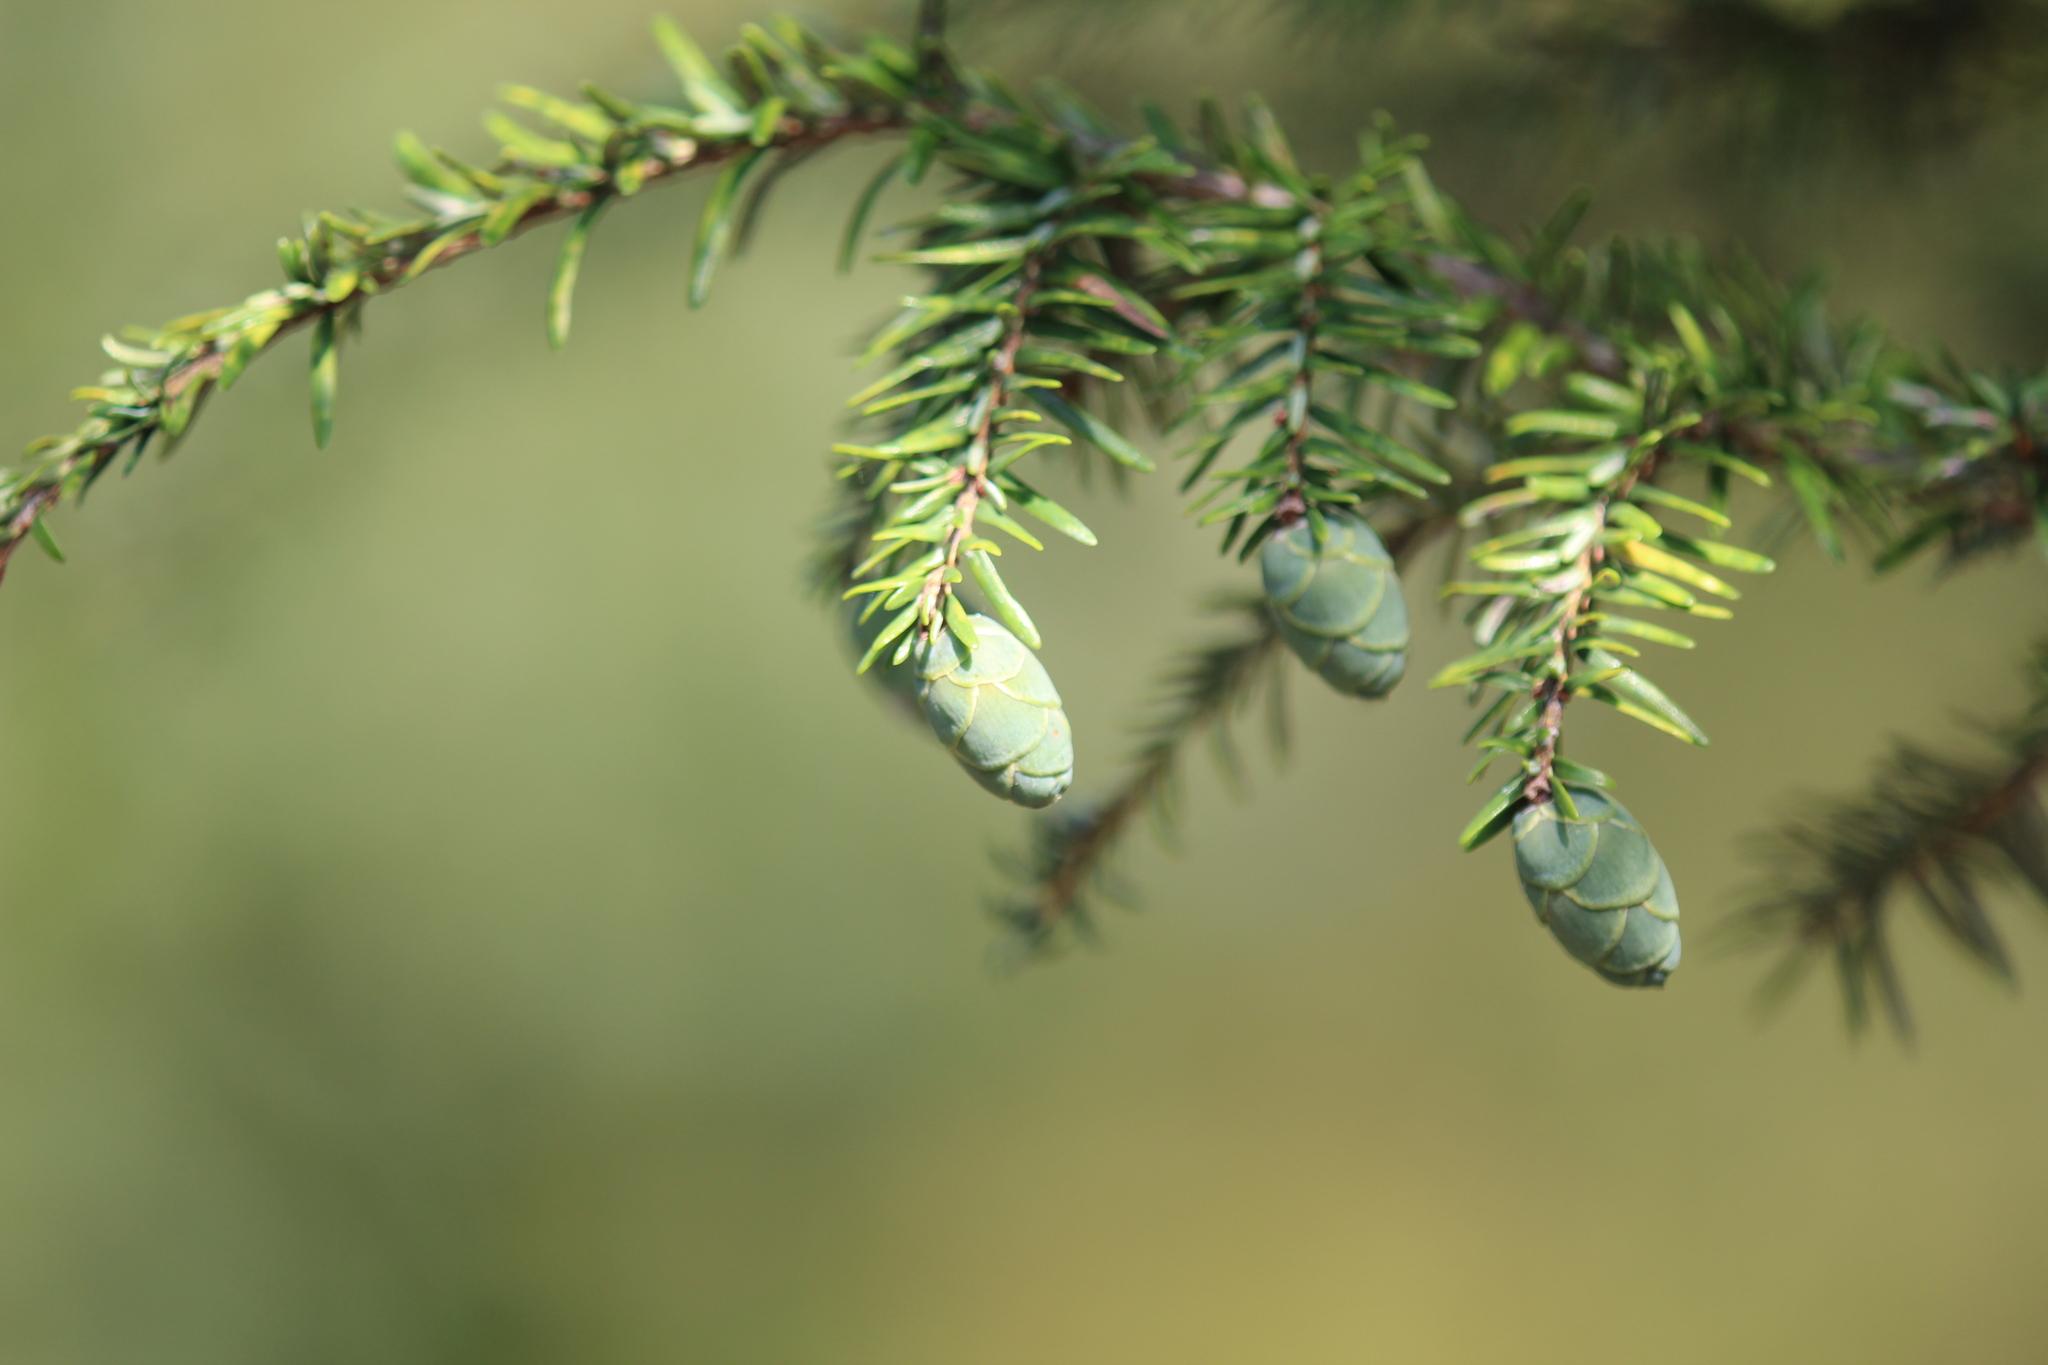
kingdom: Plantae
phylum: Tracheophyta
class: Pinopsida
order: Pinales
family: Pinaceae
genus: Tsuga
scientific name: Tsuga canadensis
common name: Eastern hemlock
